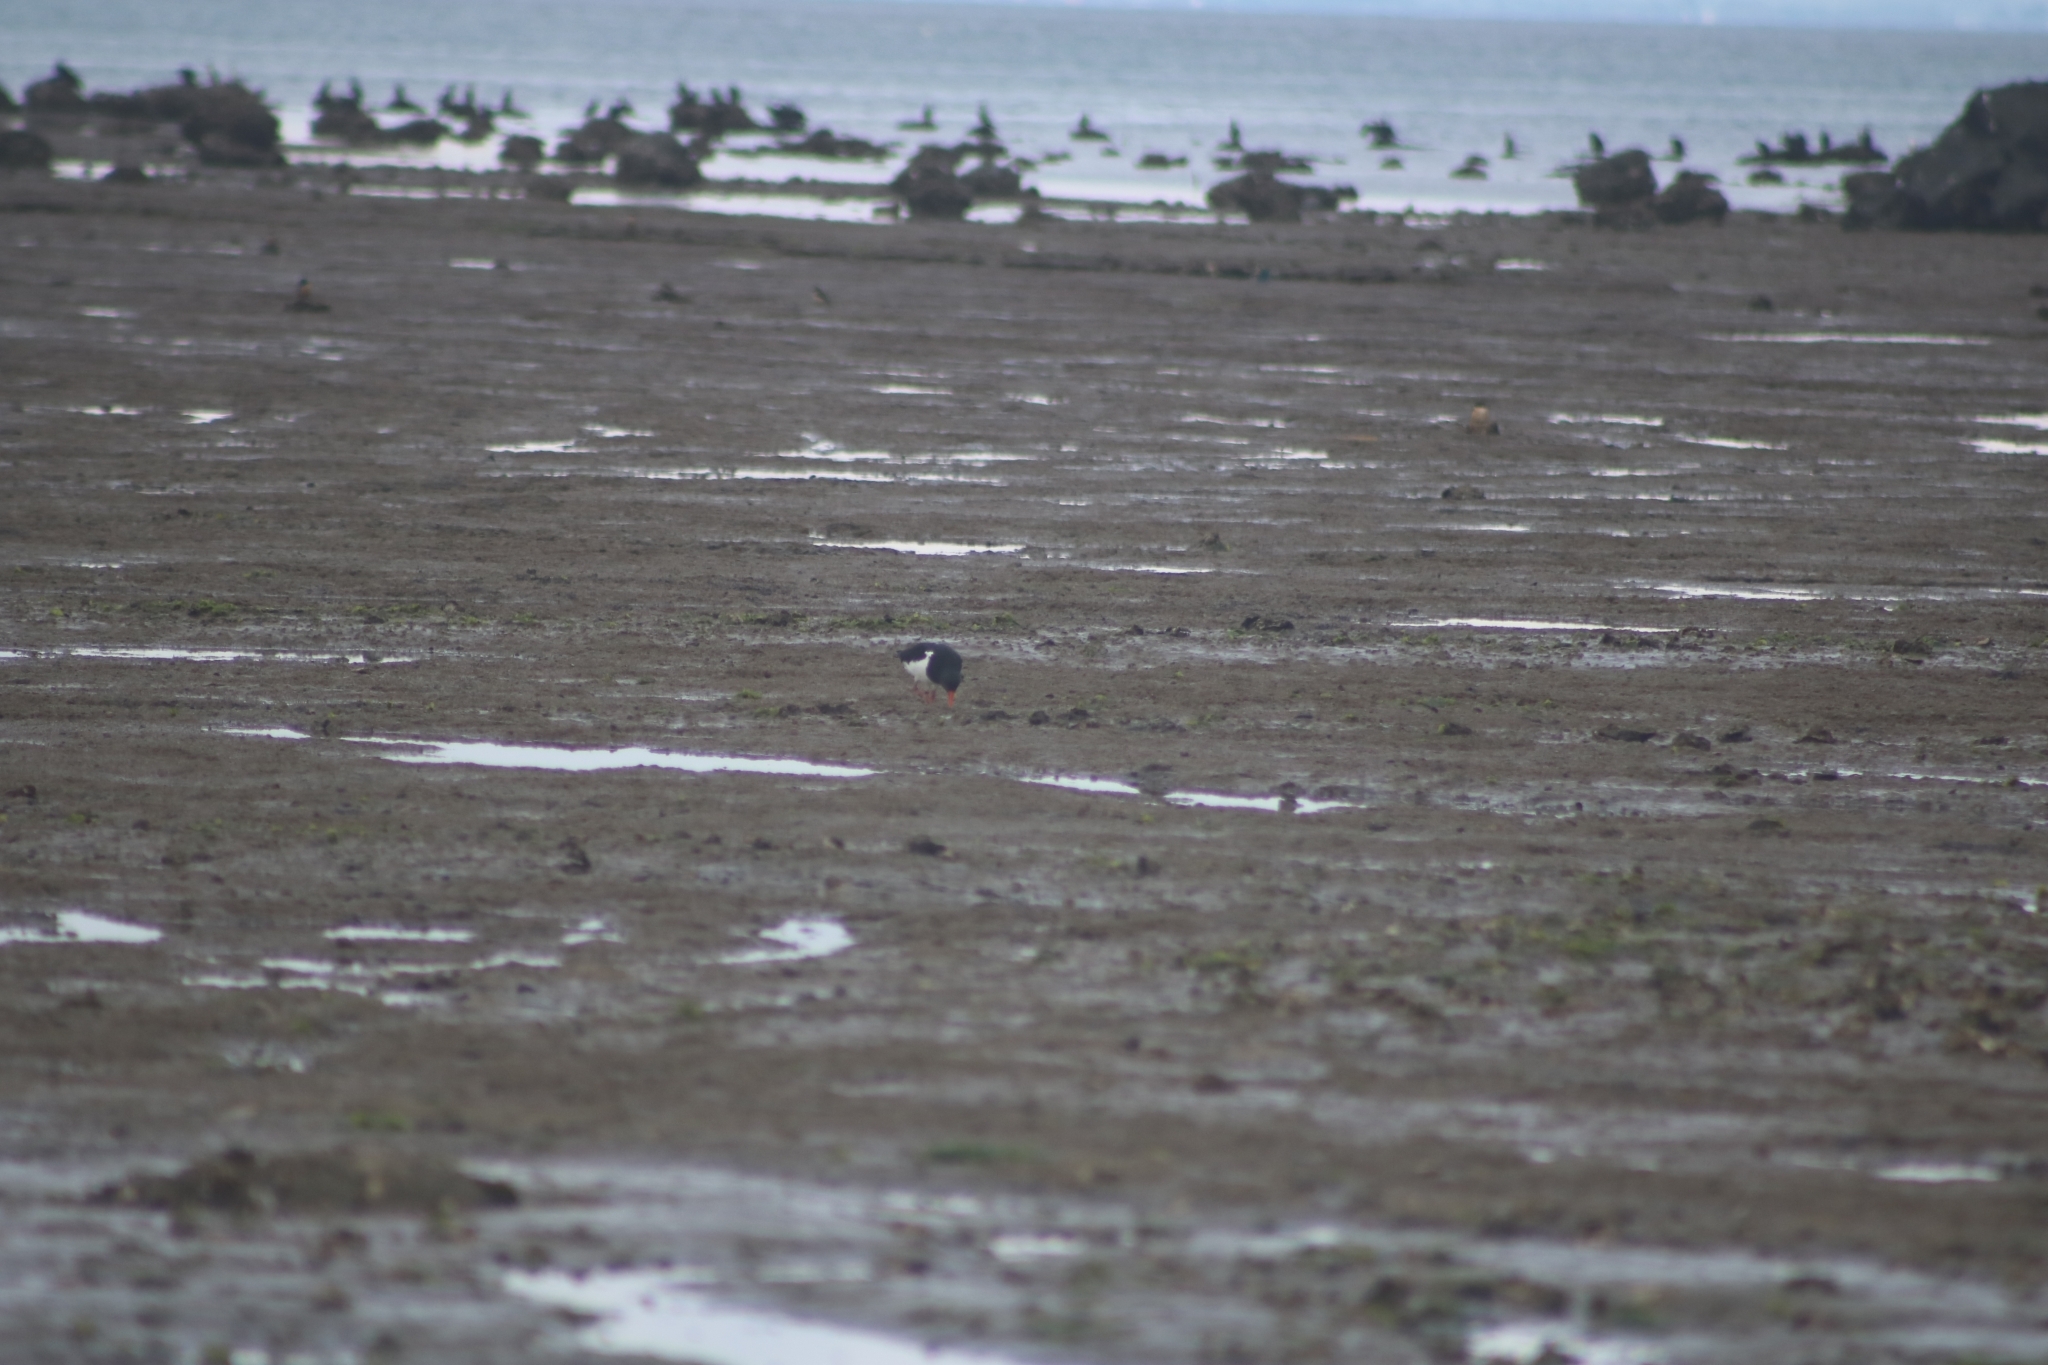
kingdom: Animalia
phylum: Chordata
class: Aves
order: Charadriiformes
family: Haematopodidae
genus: Haematopus
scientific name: Haematopus finschi
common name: South island oystercatcher
